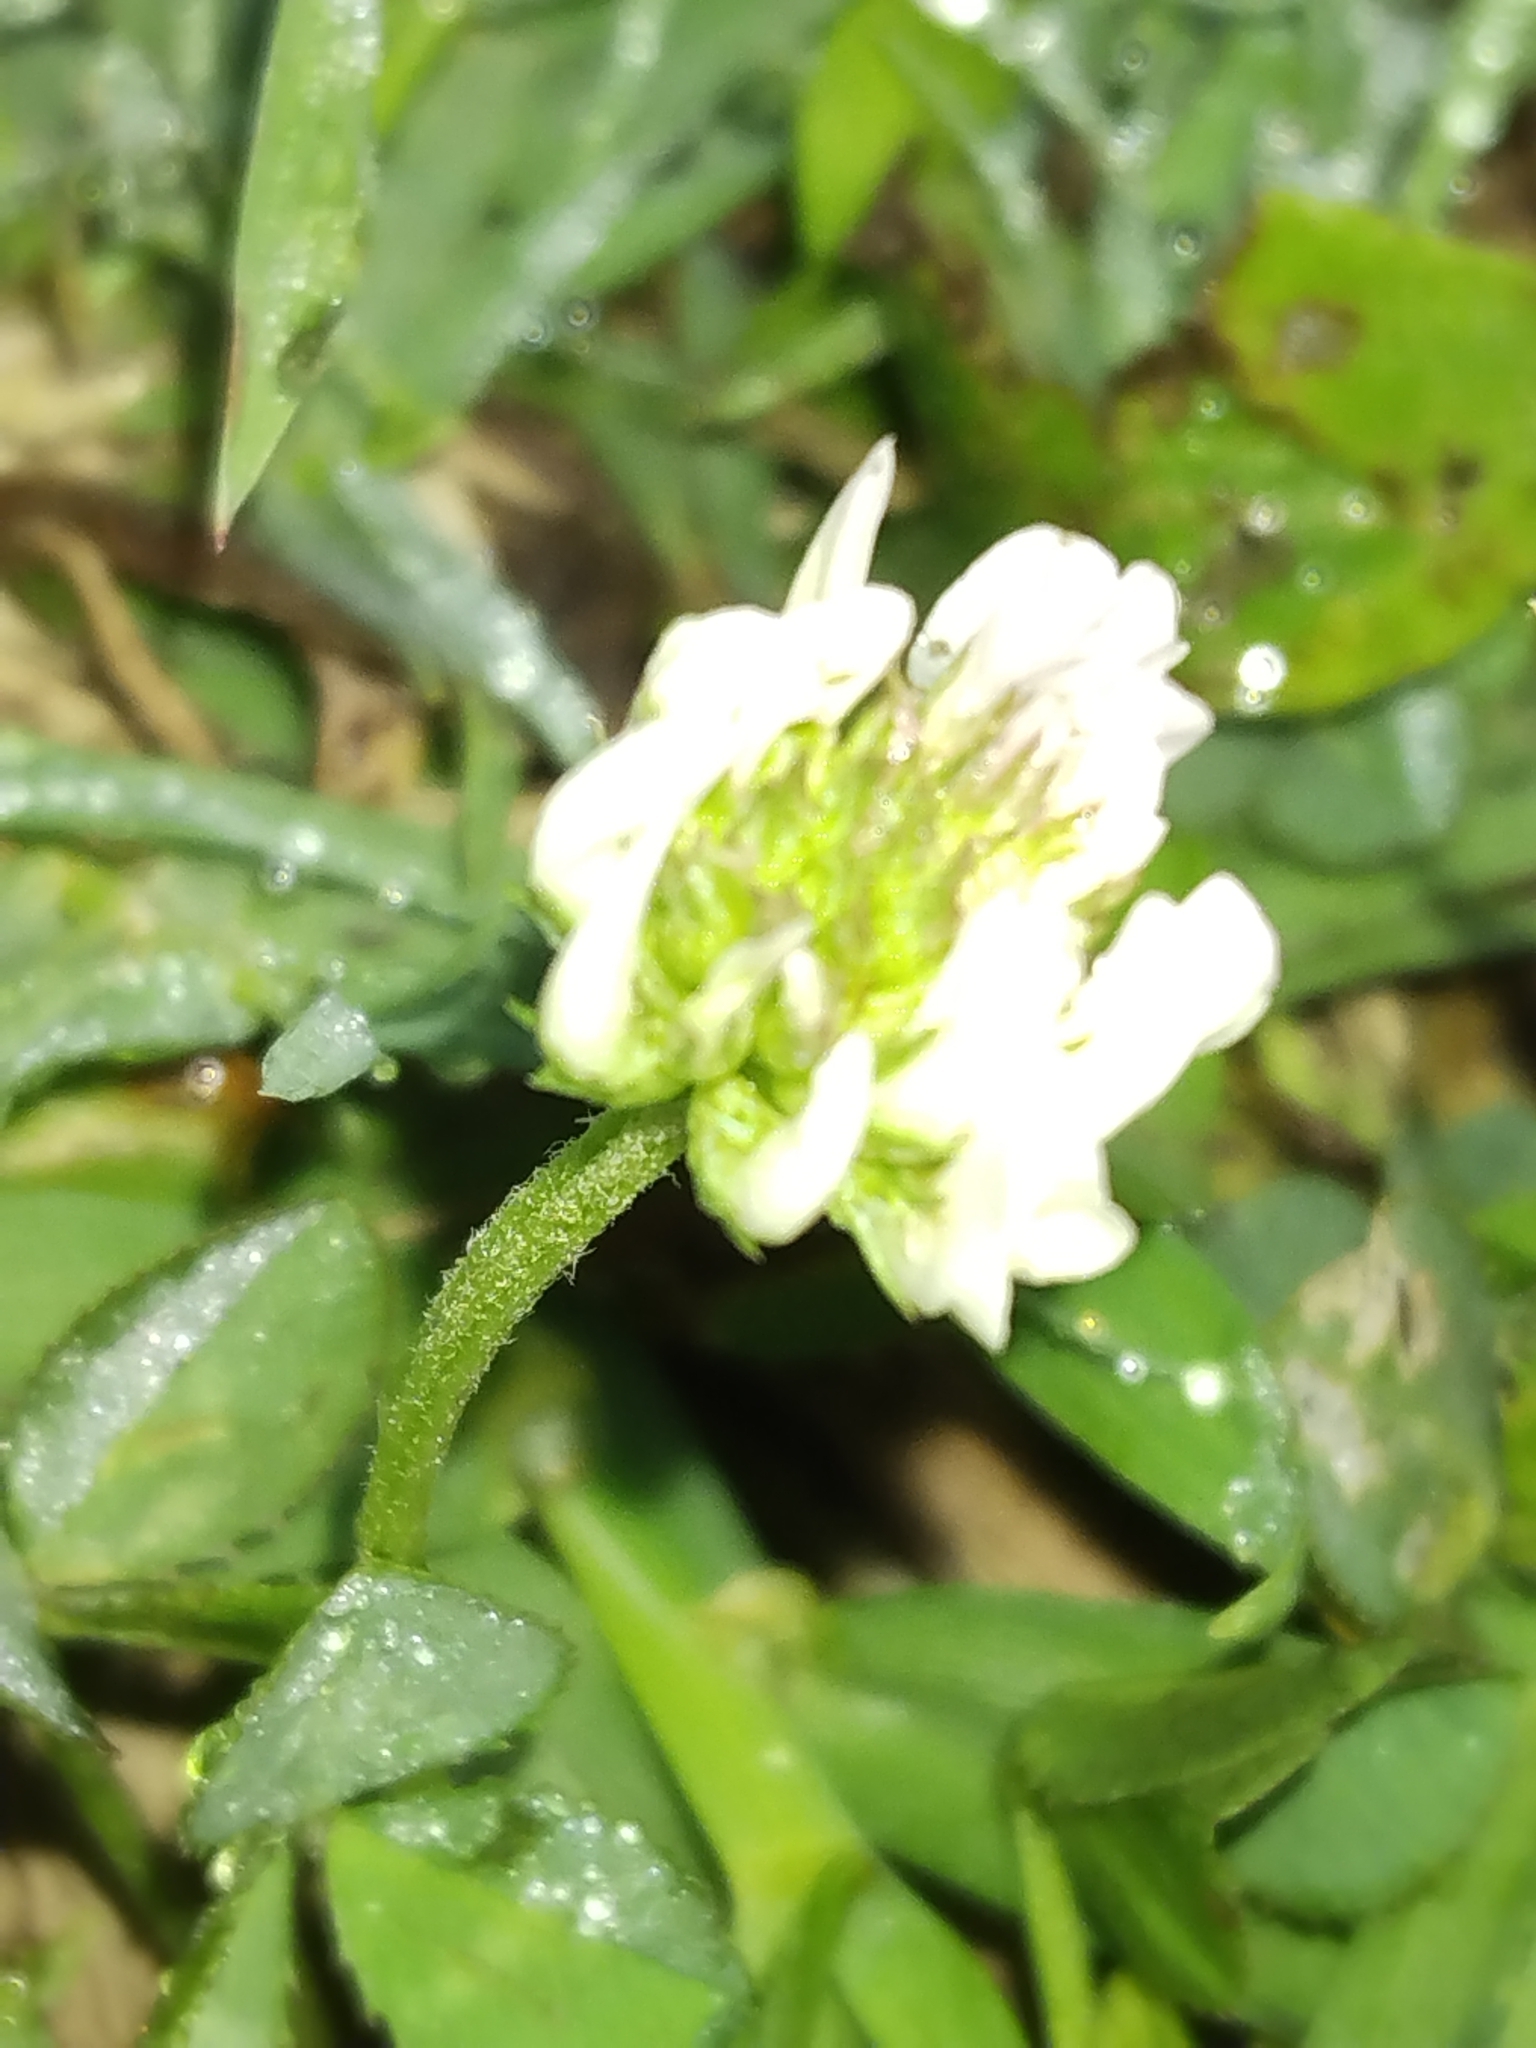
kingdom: Plantae
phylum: Tracheophyta
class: Magnoliopsida
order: Fabales
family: Fabaceae
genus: Trifolium
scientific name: Trifolium repens
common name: White clover
